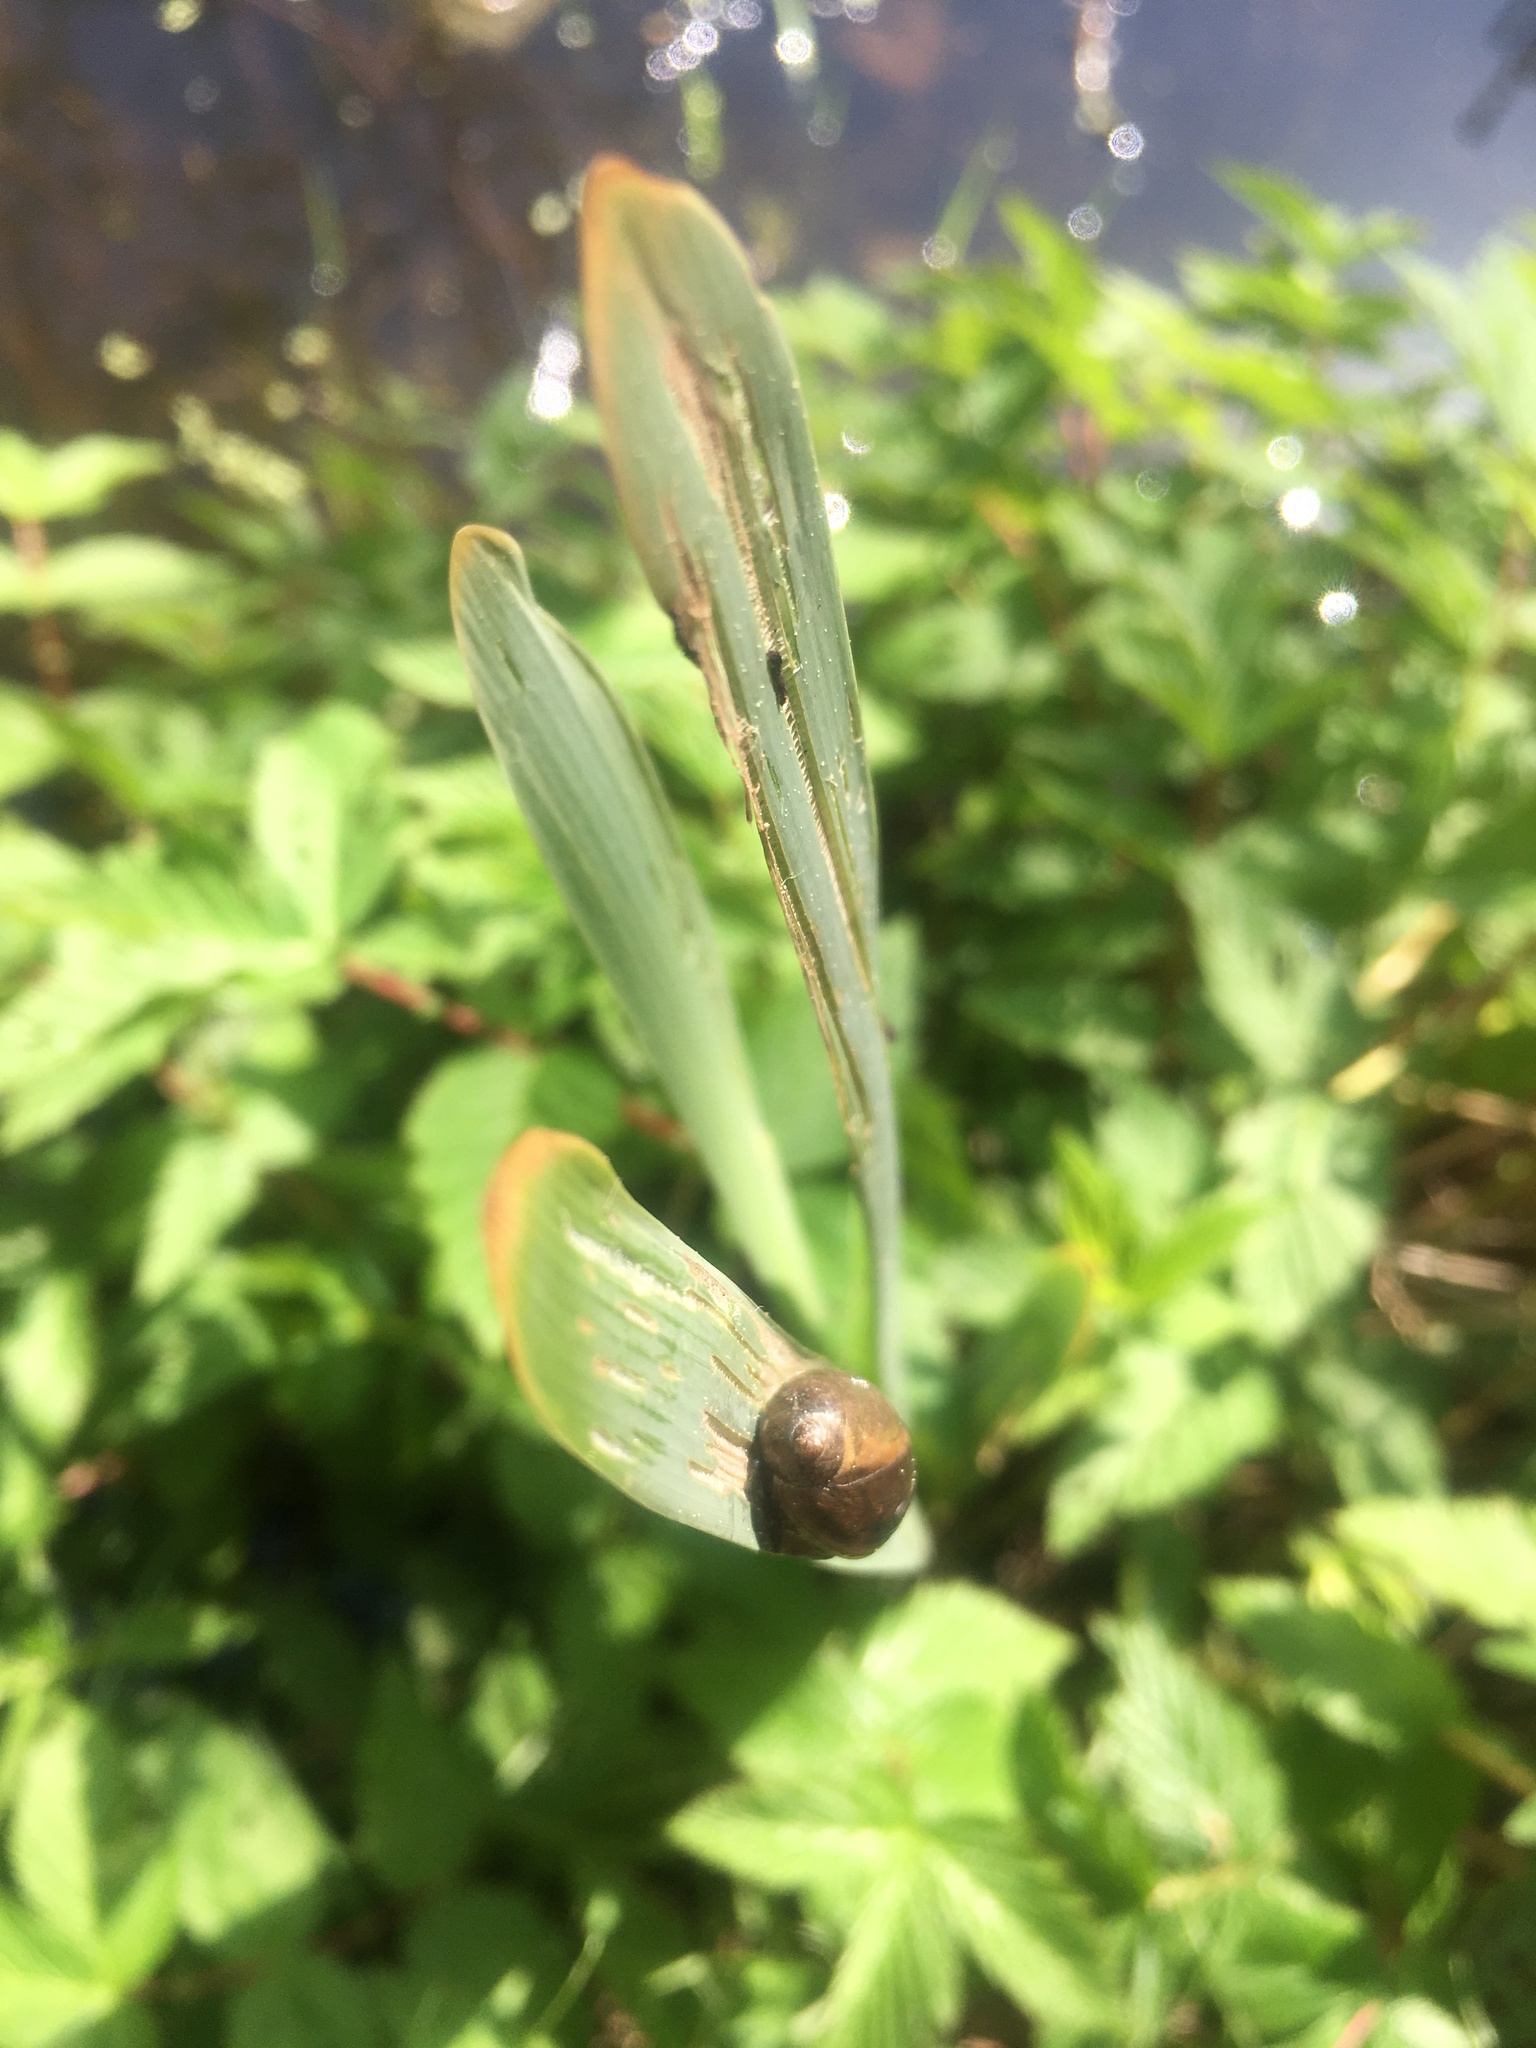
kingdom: Animalia
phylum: Mollusca
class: Gastropoda
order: Stylommatophora
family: Succineidae
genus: Succinea
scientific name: Succinea putris
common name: European ambersnail
